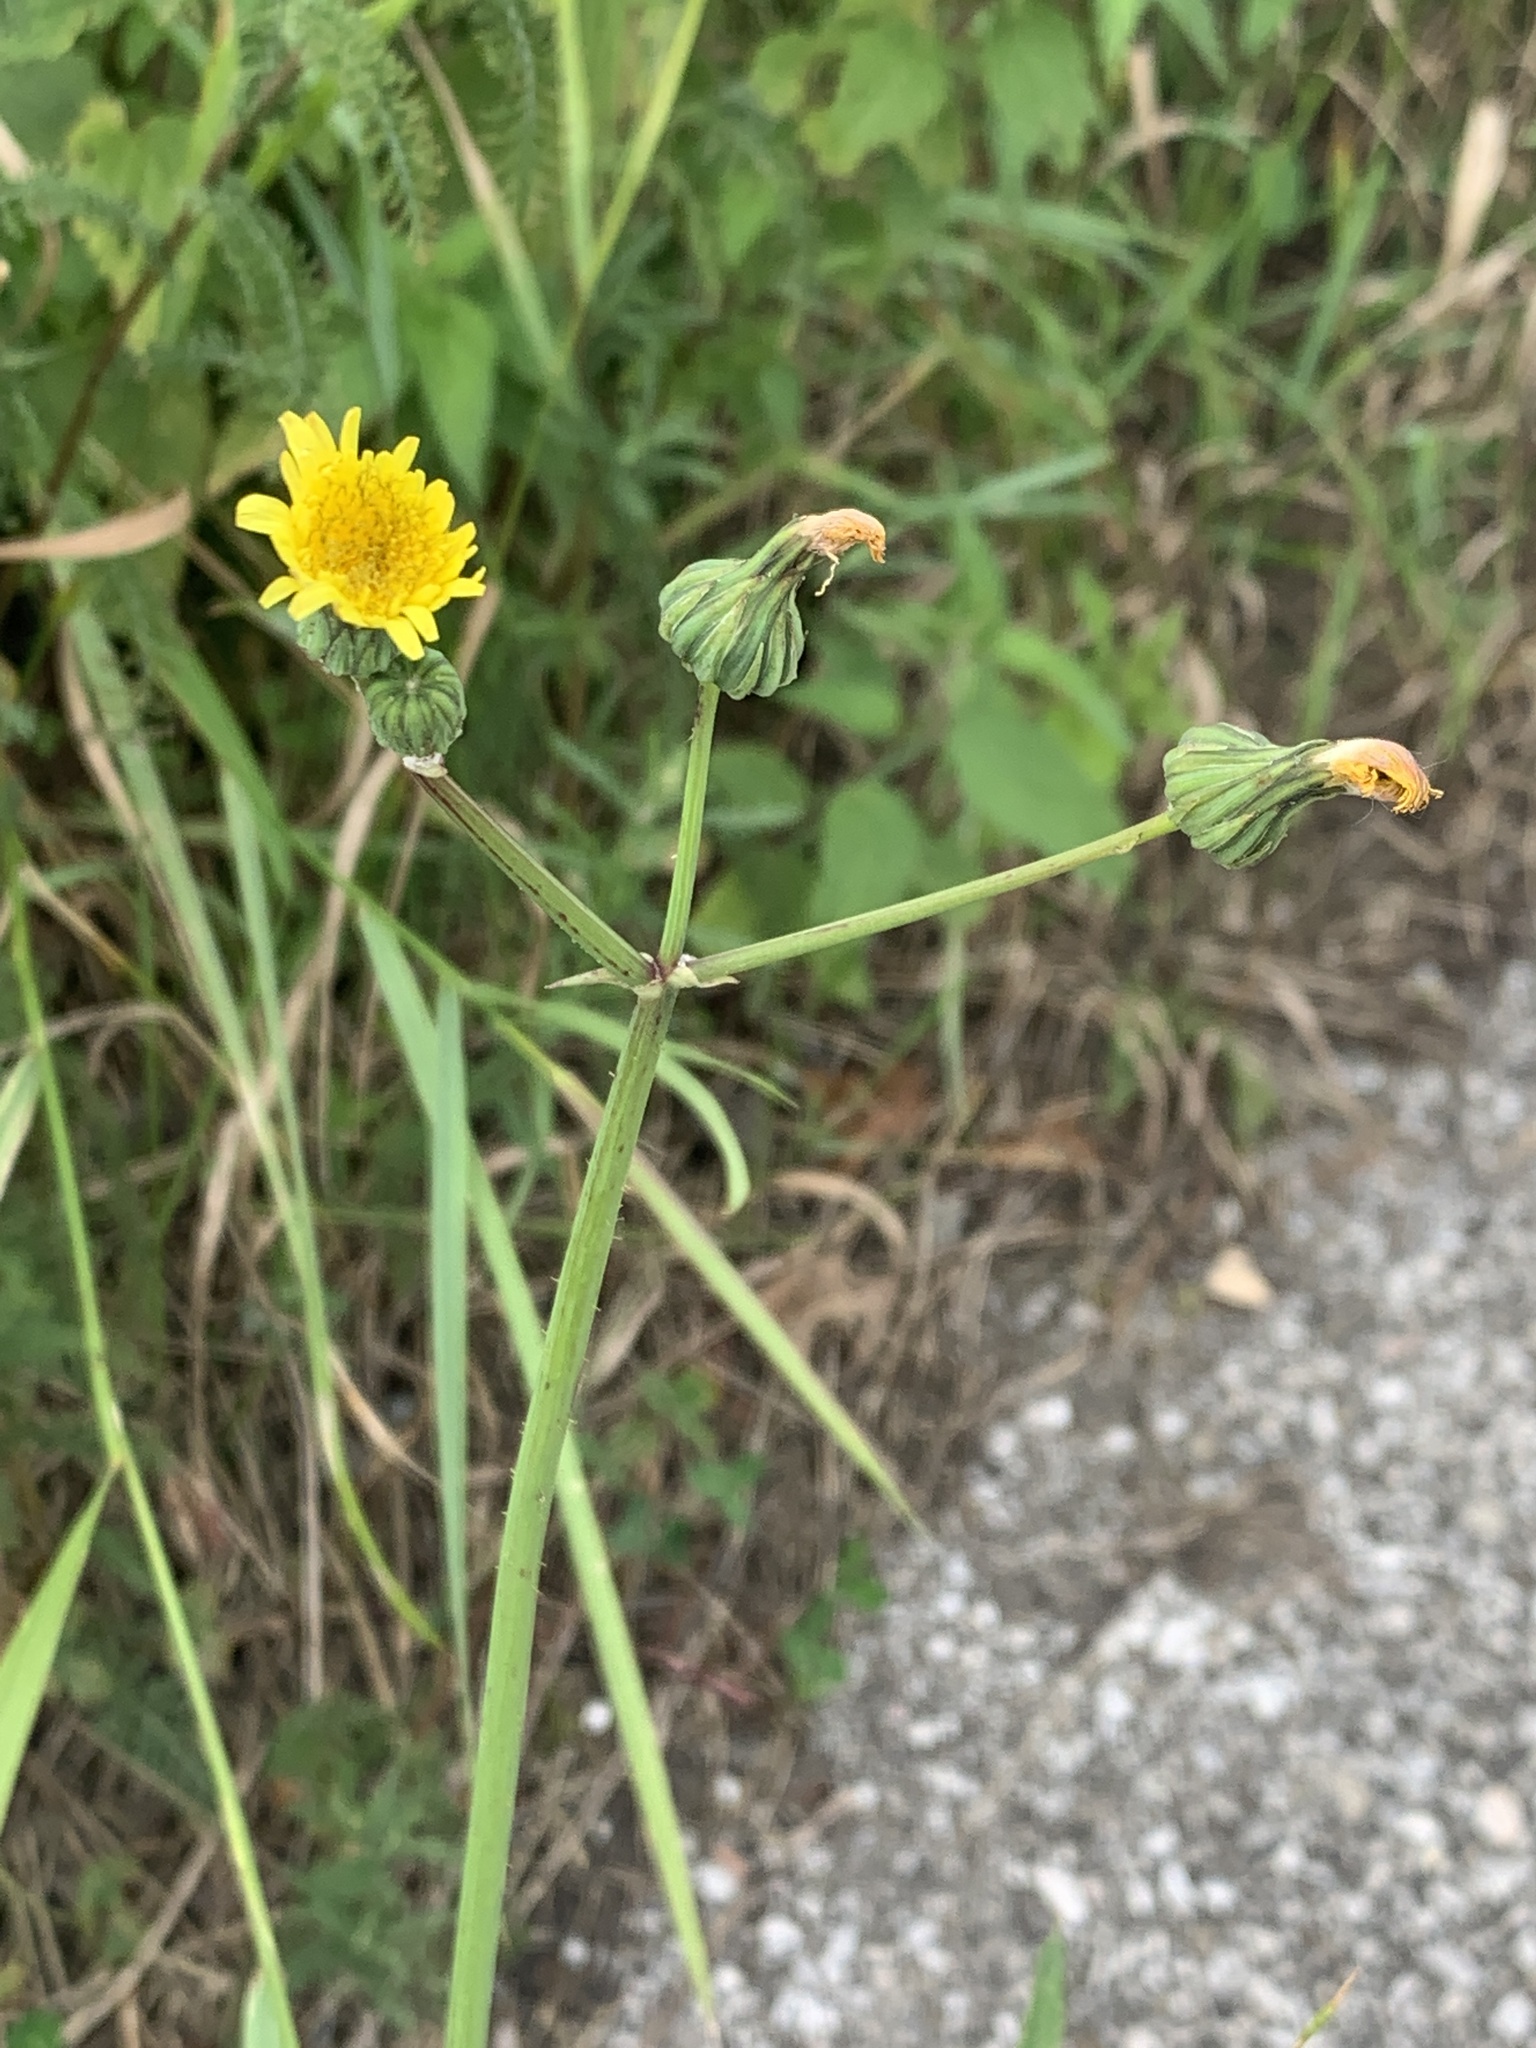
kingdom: Plantae
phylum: Tracheophyta
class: Magnoliopsida
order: Asterales
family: Asteraceae
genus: Sonchus
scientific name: Sonchus oleraceus
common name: Common sowthistle
